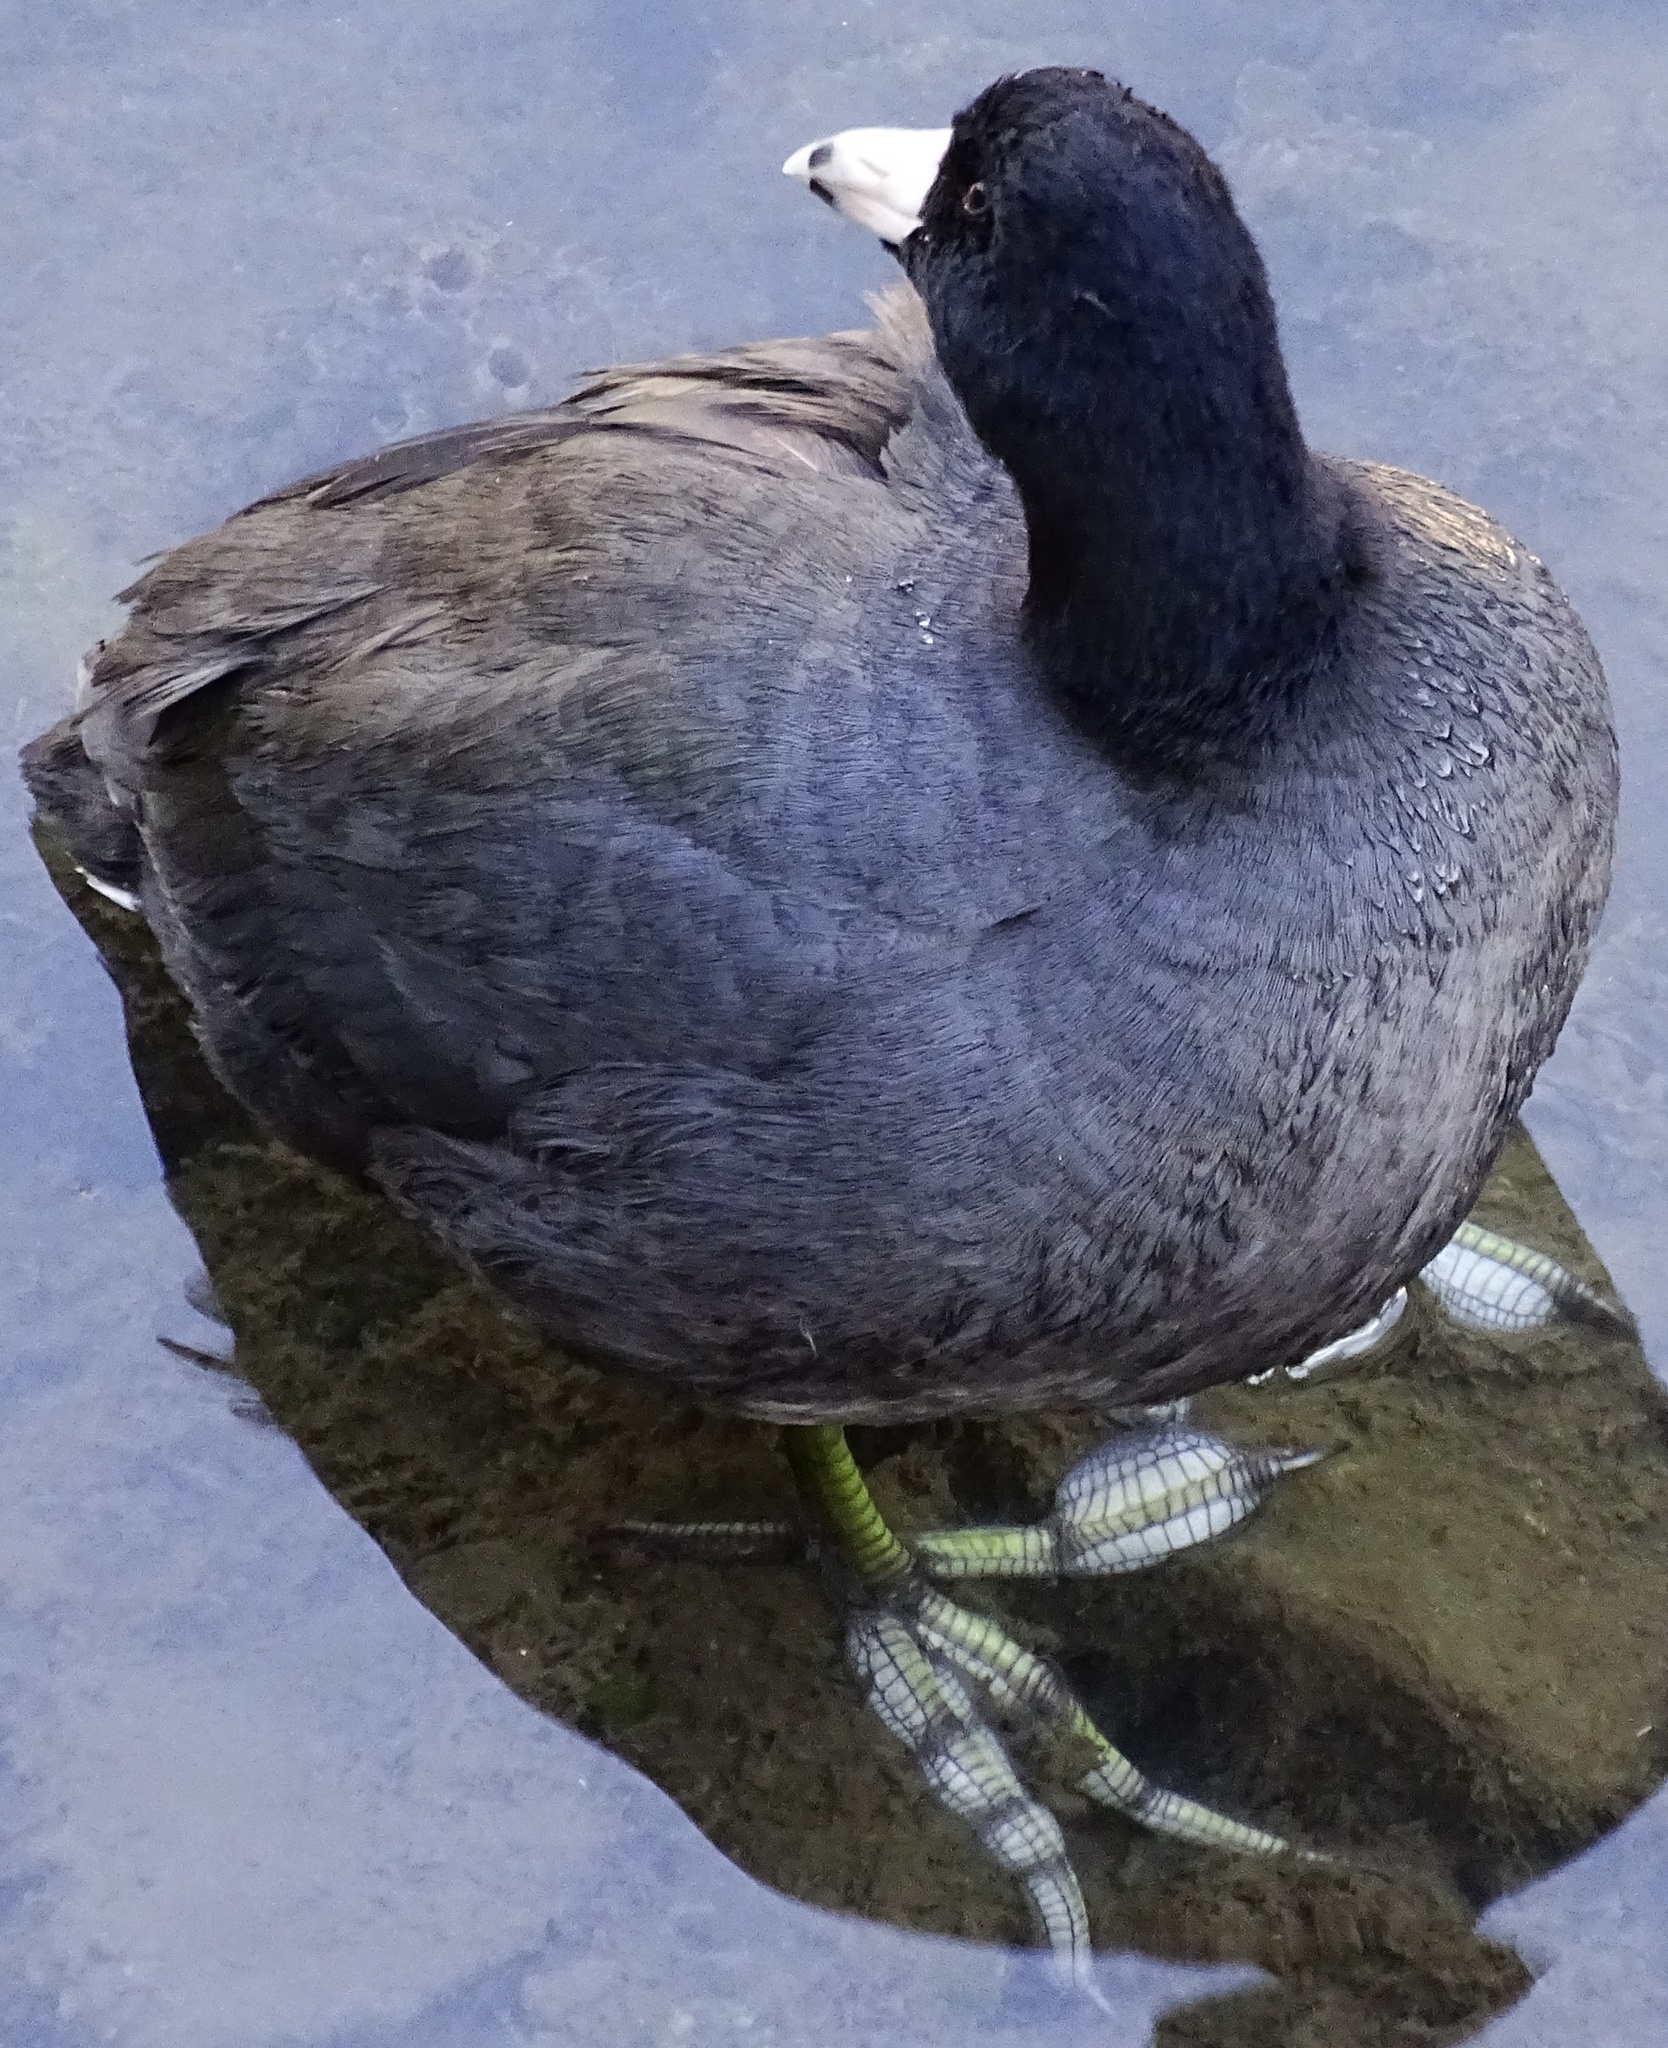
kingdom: Animalia
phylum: Chordata
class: Aves
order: Gruiformes
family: Rallidae
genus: Fulica
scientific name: Fulica americana
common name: American coot
